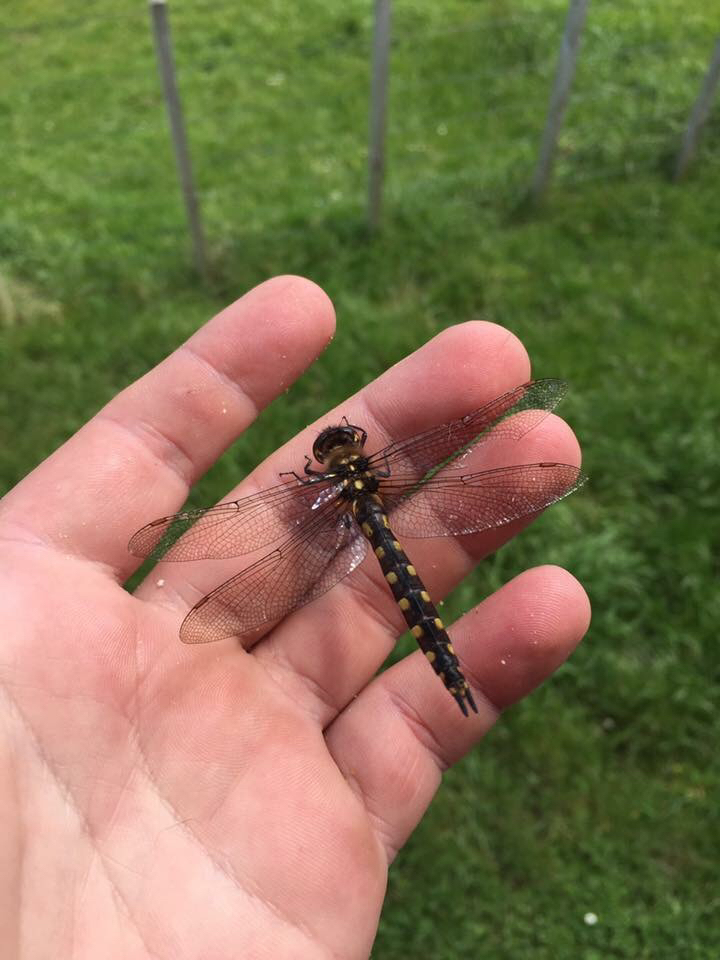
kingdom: Animalia
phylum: Arthropoda
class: Insecta
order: Odonata
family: Corduliidae
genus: Procordulia
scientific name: Procordulia grayi
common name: Yellow spotted dragonfly
